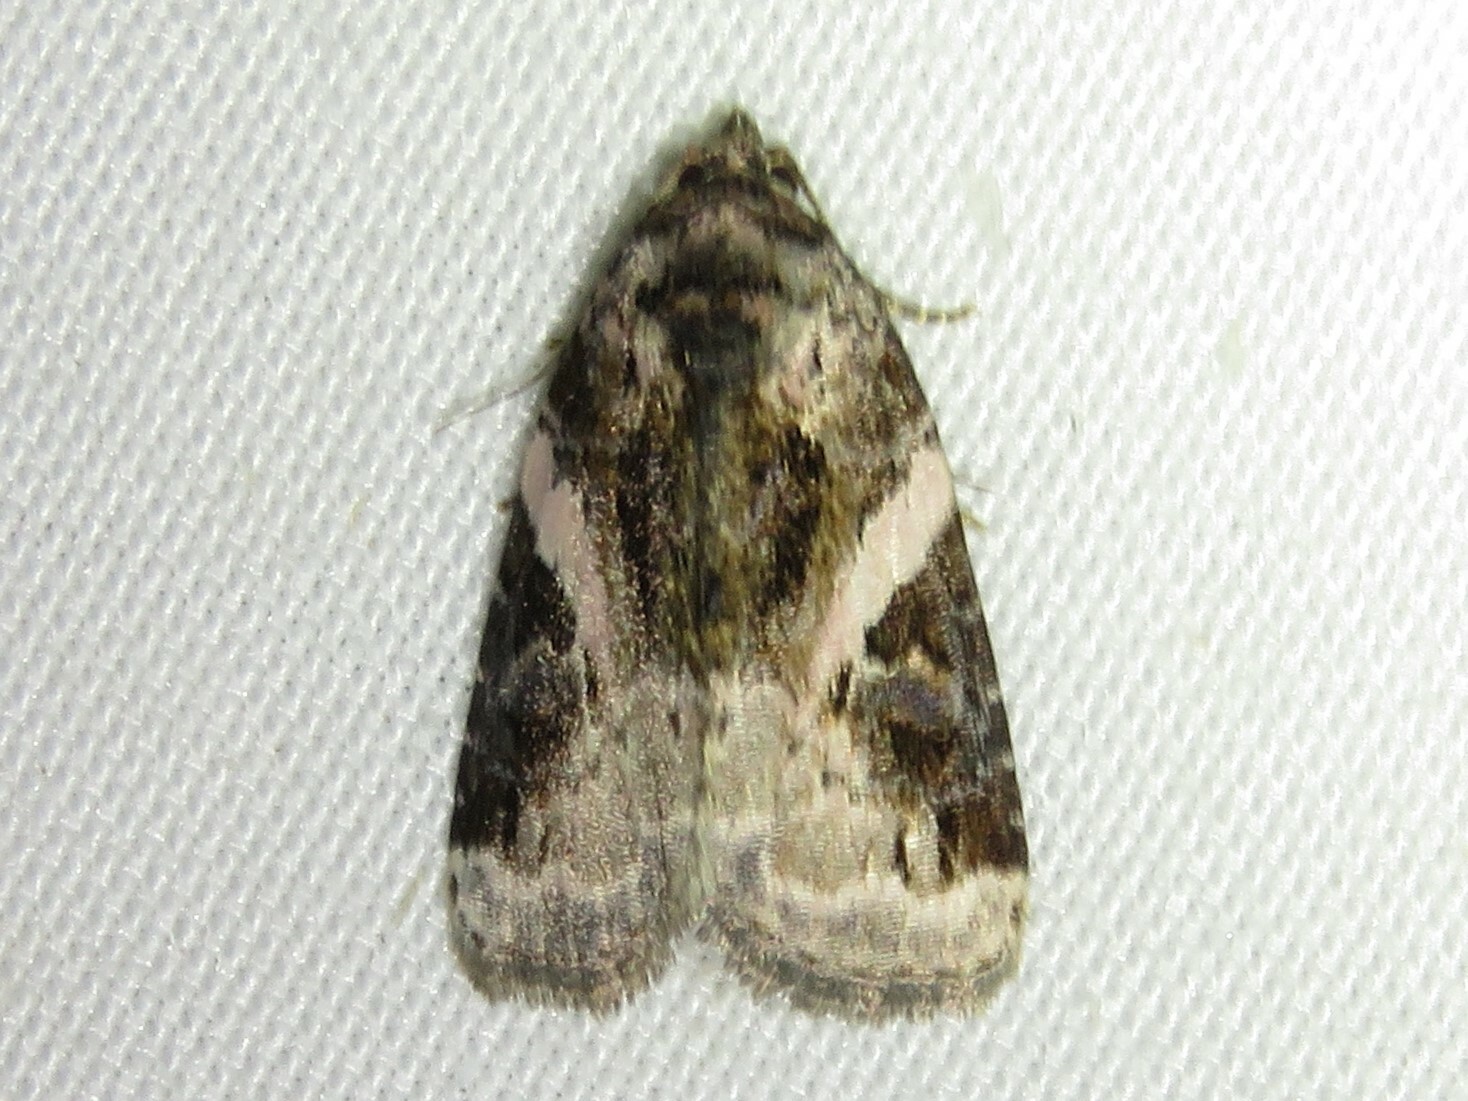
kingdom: Animalia
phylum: Arthropoda
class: Insecta
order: Lepidoptera
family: Noctuidae
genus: Pseudeustrotia
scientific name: Pseudeustrotia carneola
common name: Pink-barred lithacodia moth
